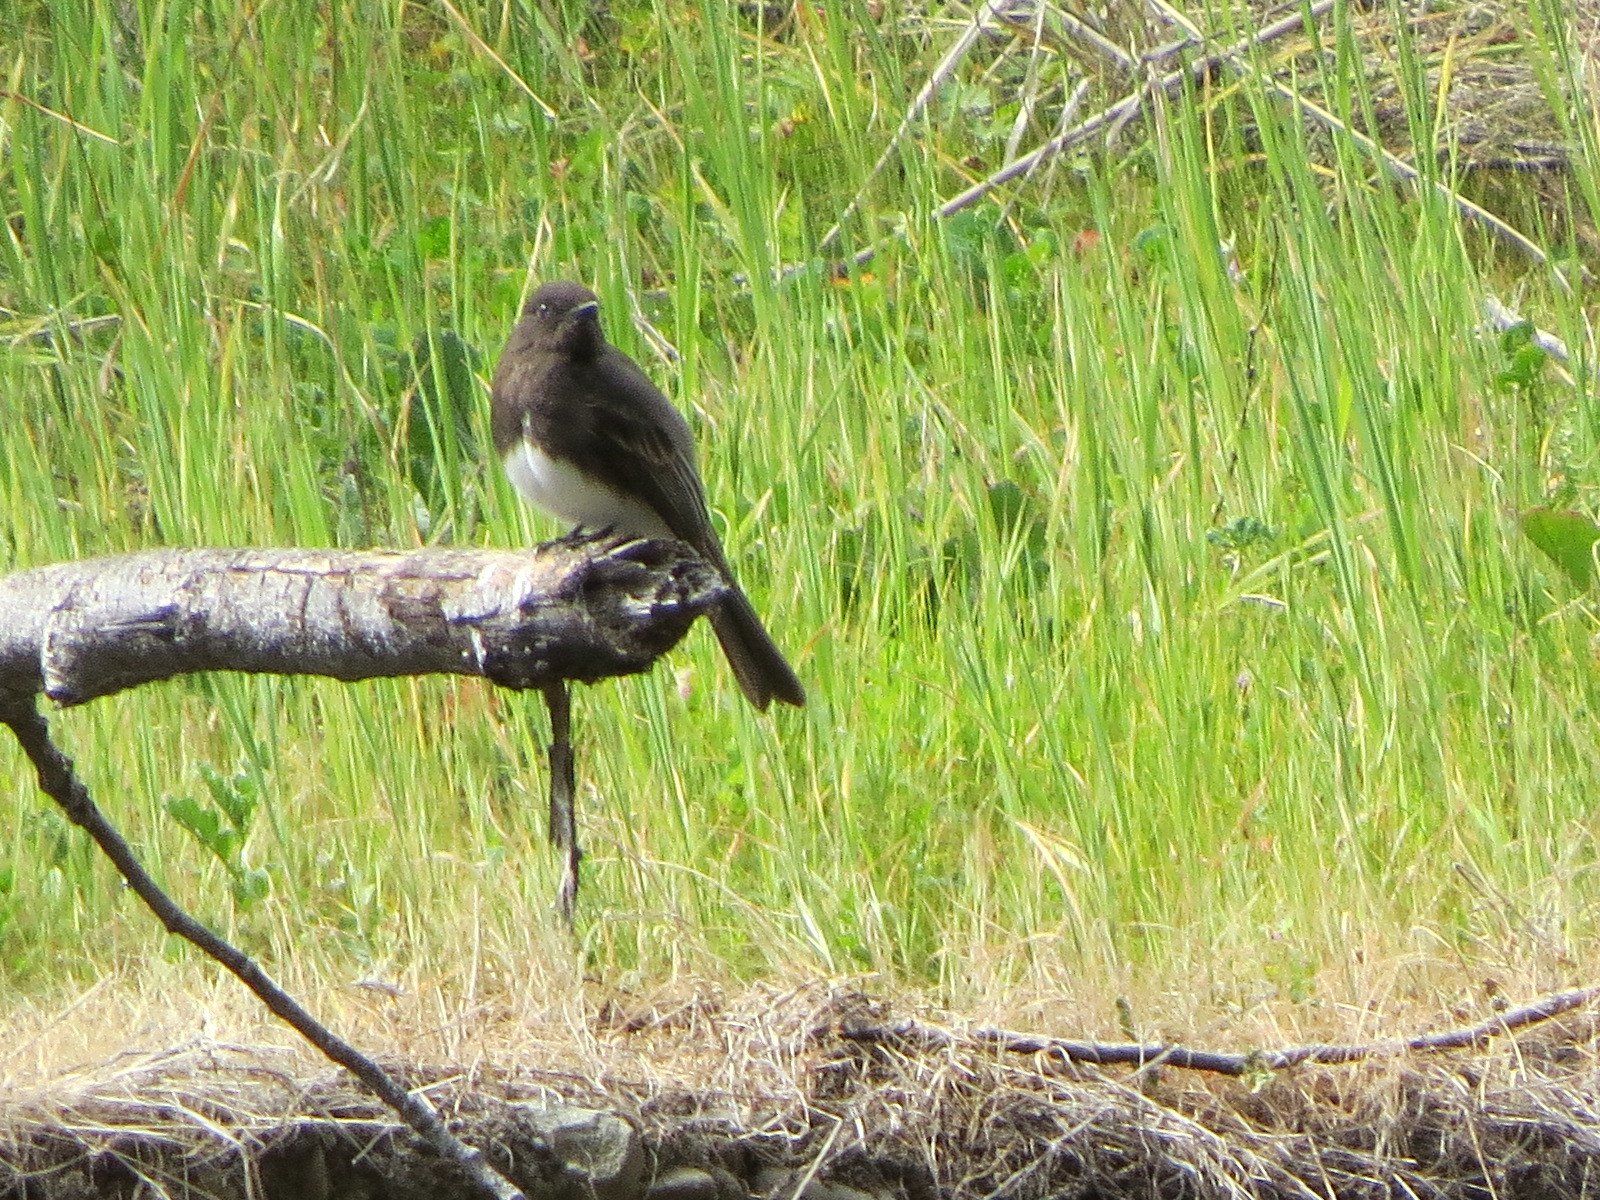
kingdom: Animalia
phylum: Chordata
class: Aves
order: Passeriformes
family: Tyrannidae
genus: Sayornis
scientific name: Sayornis nigricans
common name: Black phoebe
